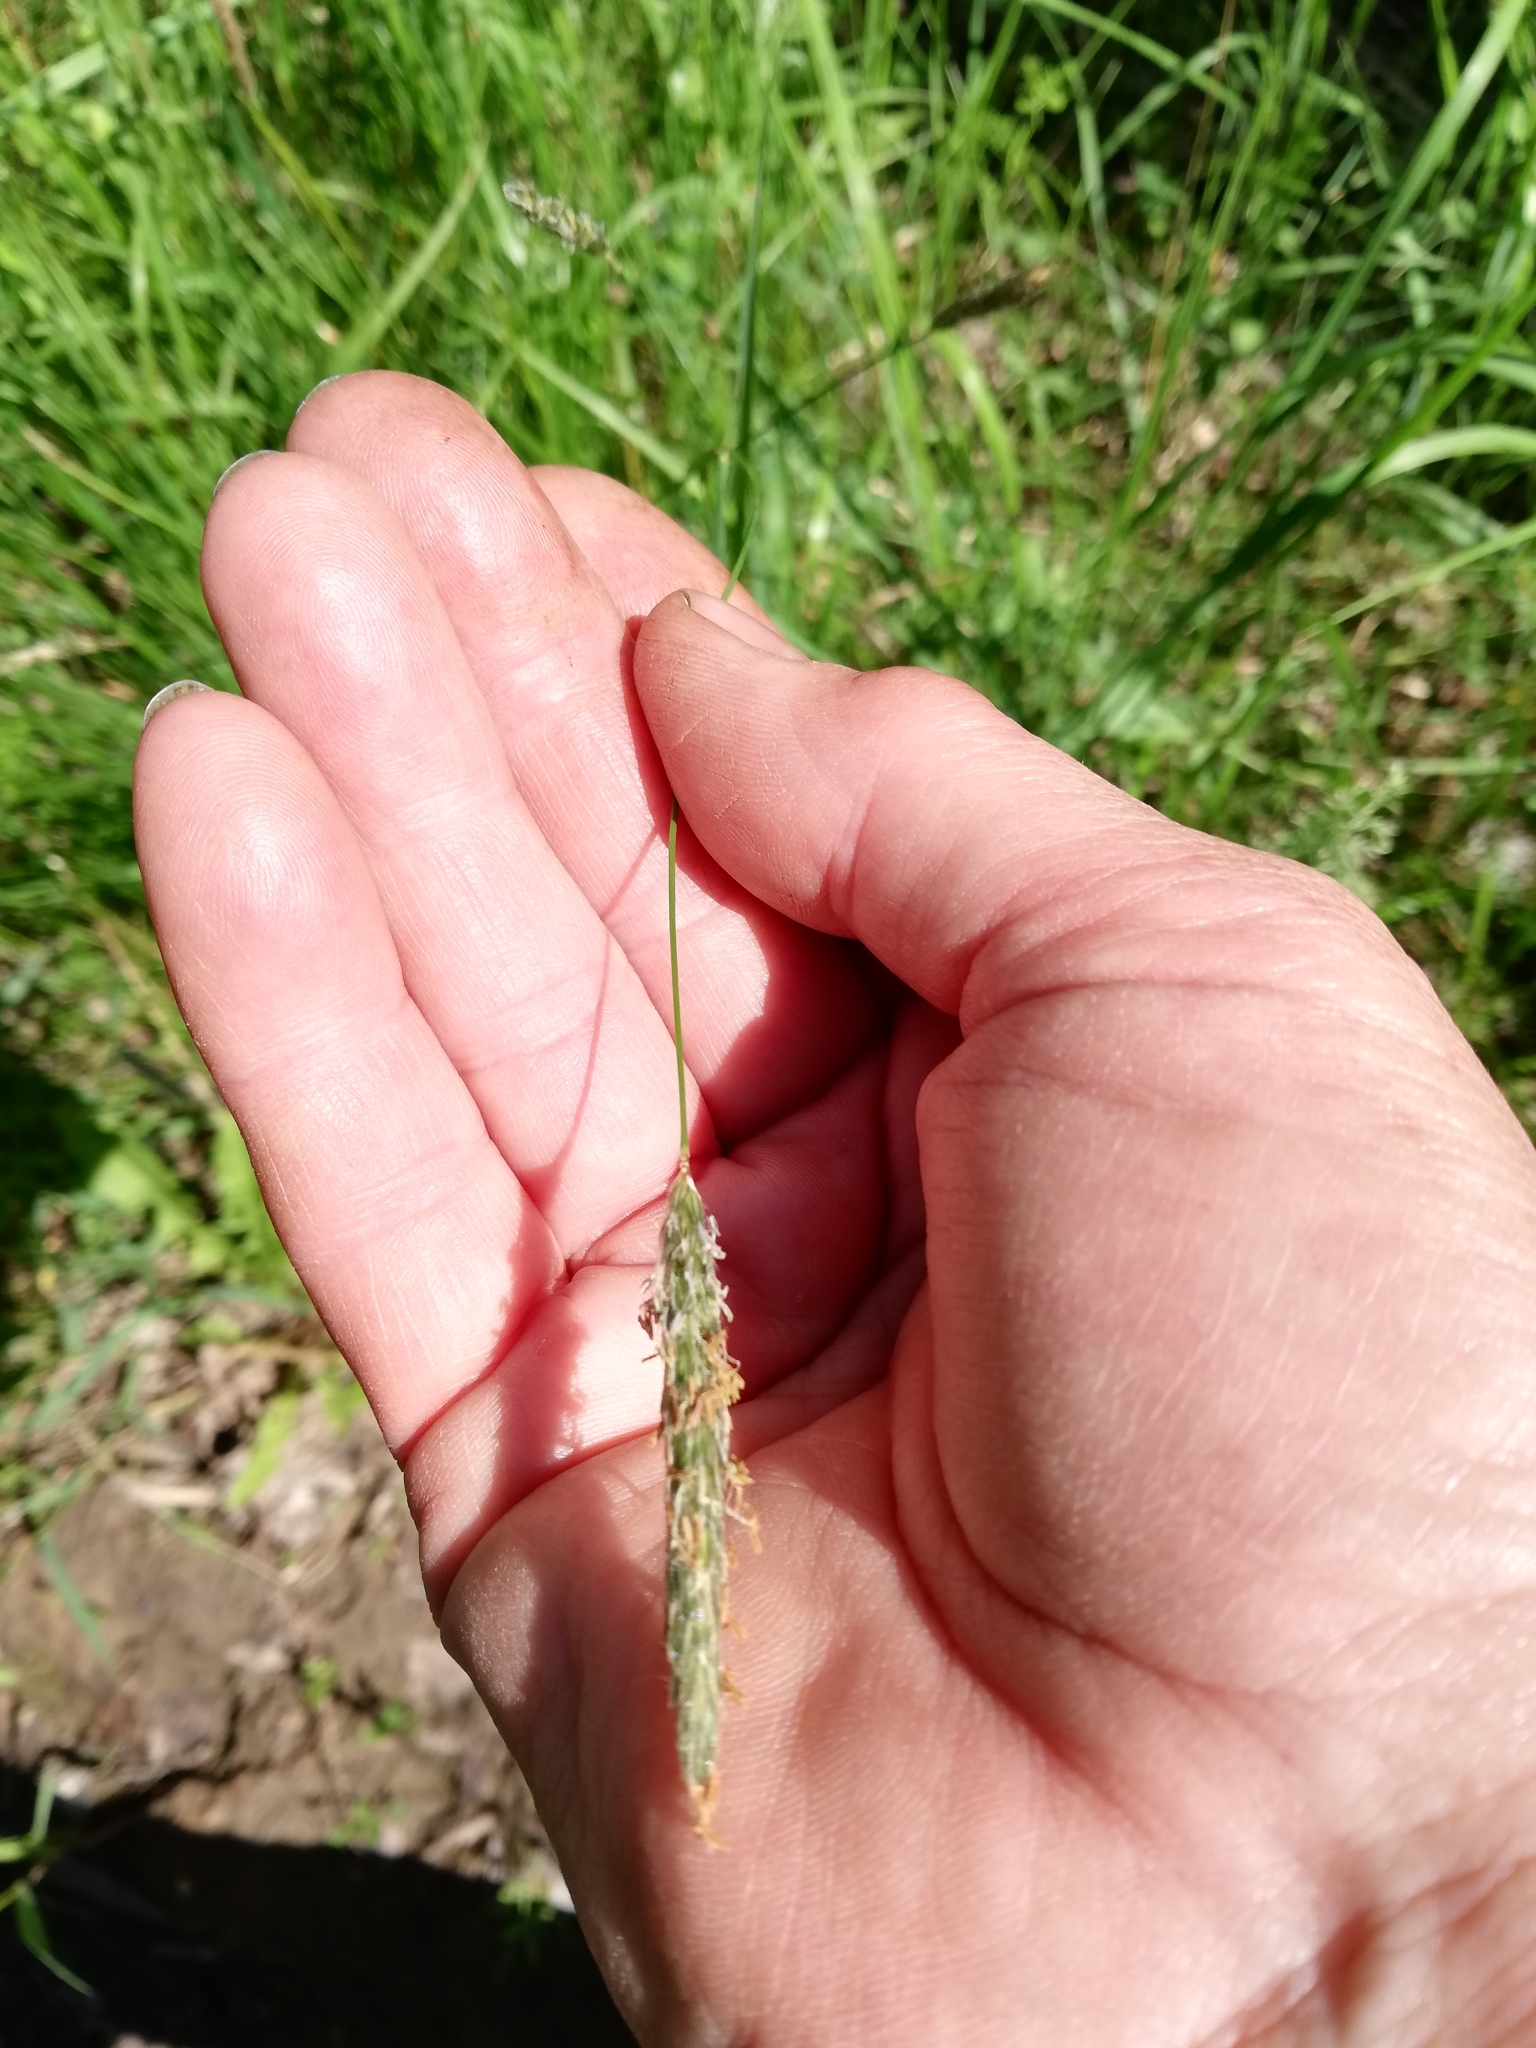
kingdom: Plantae
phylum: Tracheophyta
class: Liliopsida
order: Poales
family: Poaceae
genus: Alopecurus
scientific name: Alopecurus pratensis
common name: Meadow foxtail
